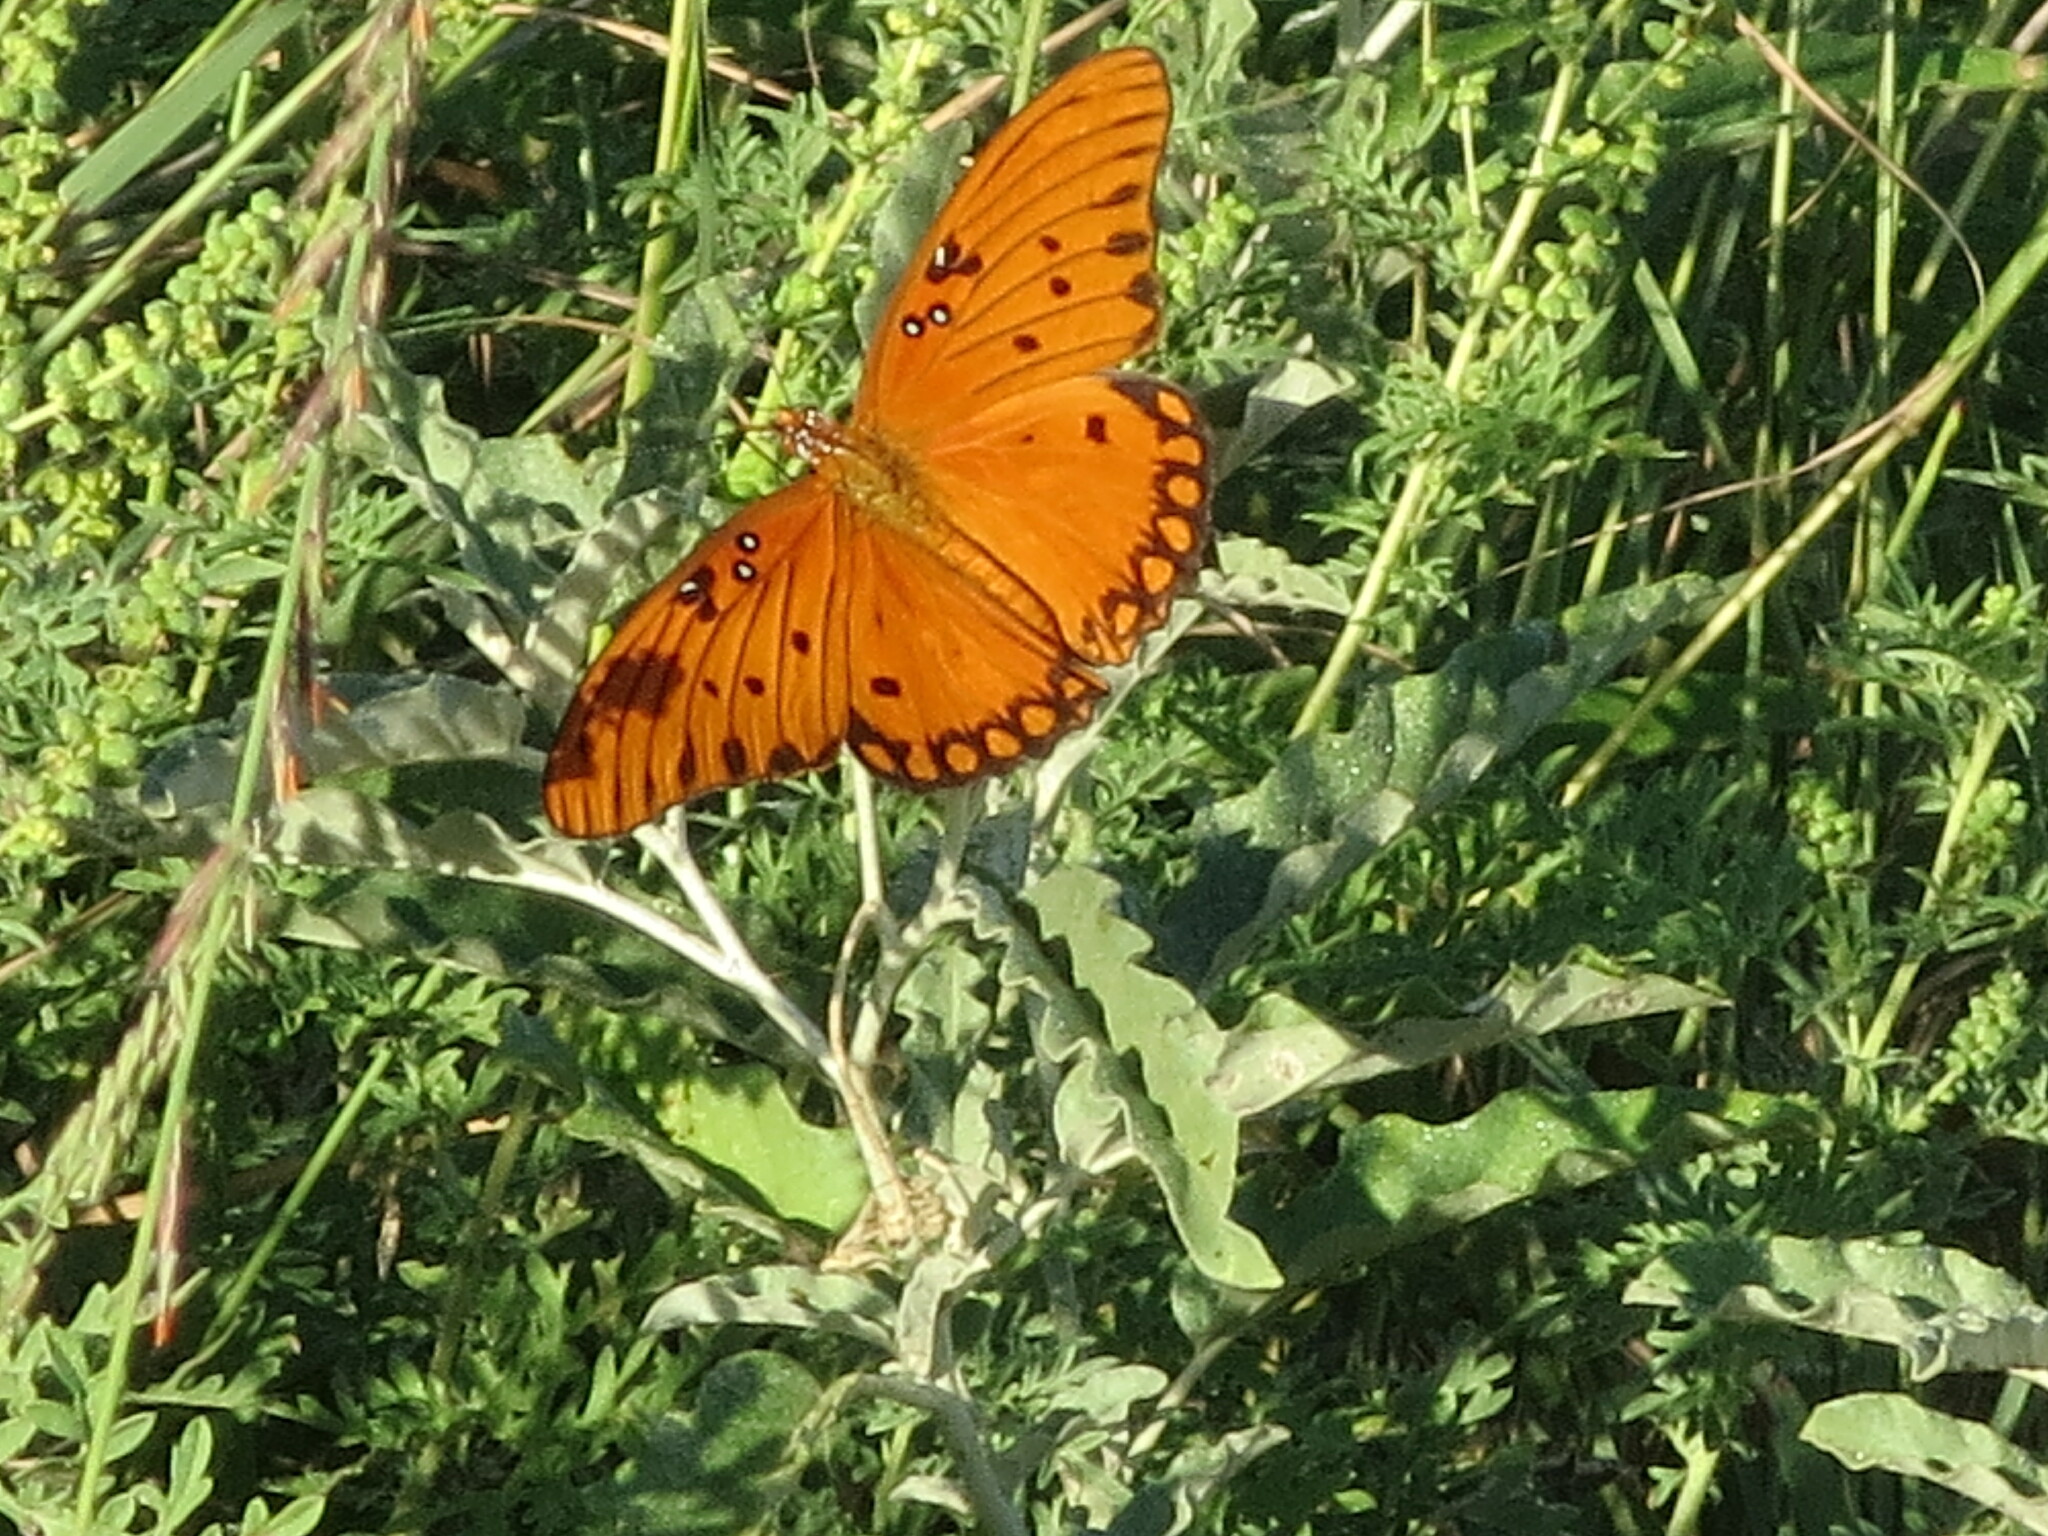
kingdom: Animalia
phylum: Arthropoda
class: Insecta
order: Lepidoptera
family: Nymphalidae
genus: Dione
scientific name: Dione vanillae
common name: Gulf fritillary
